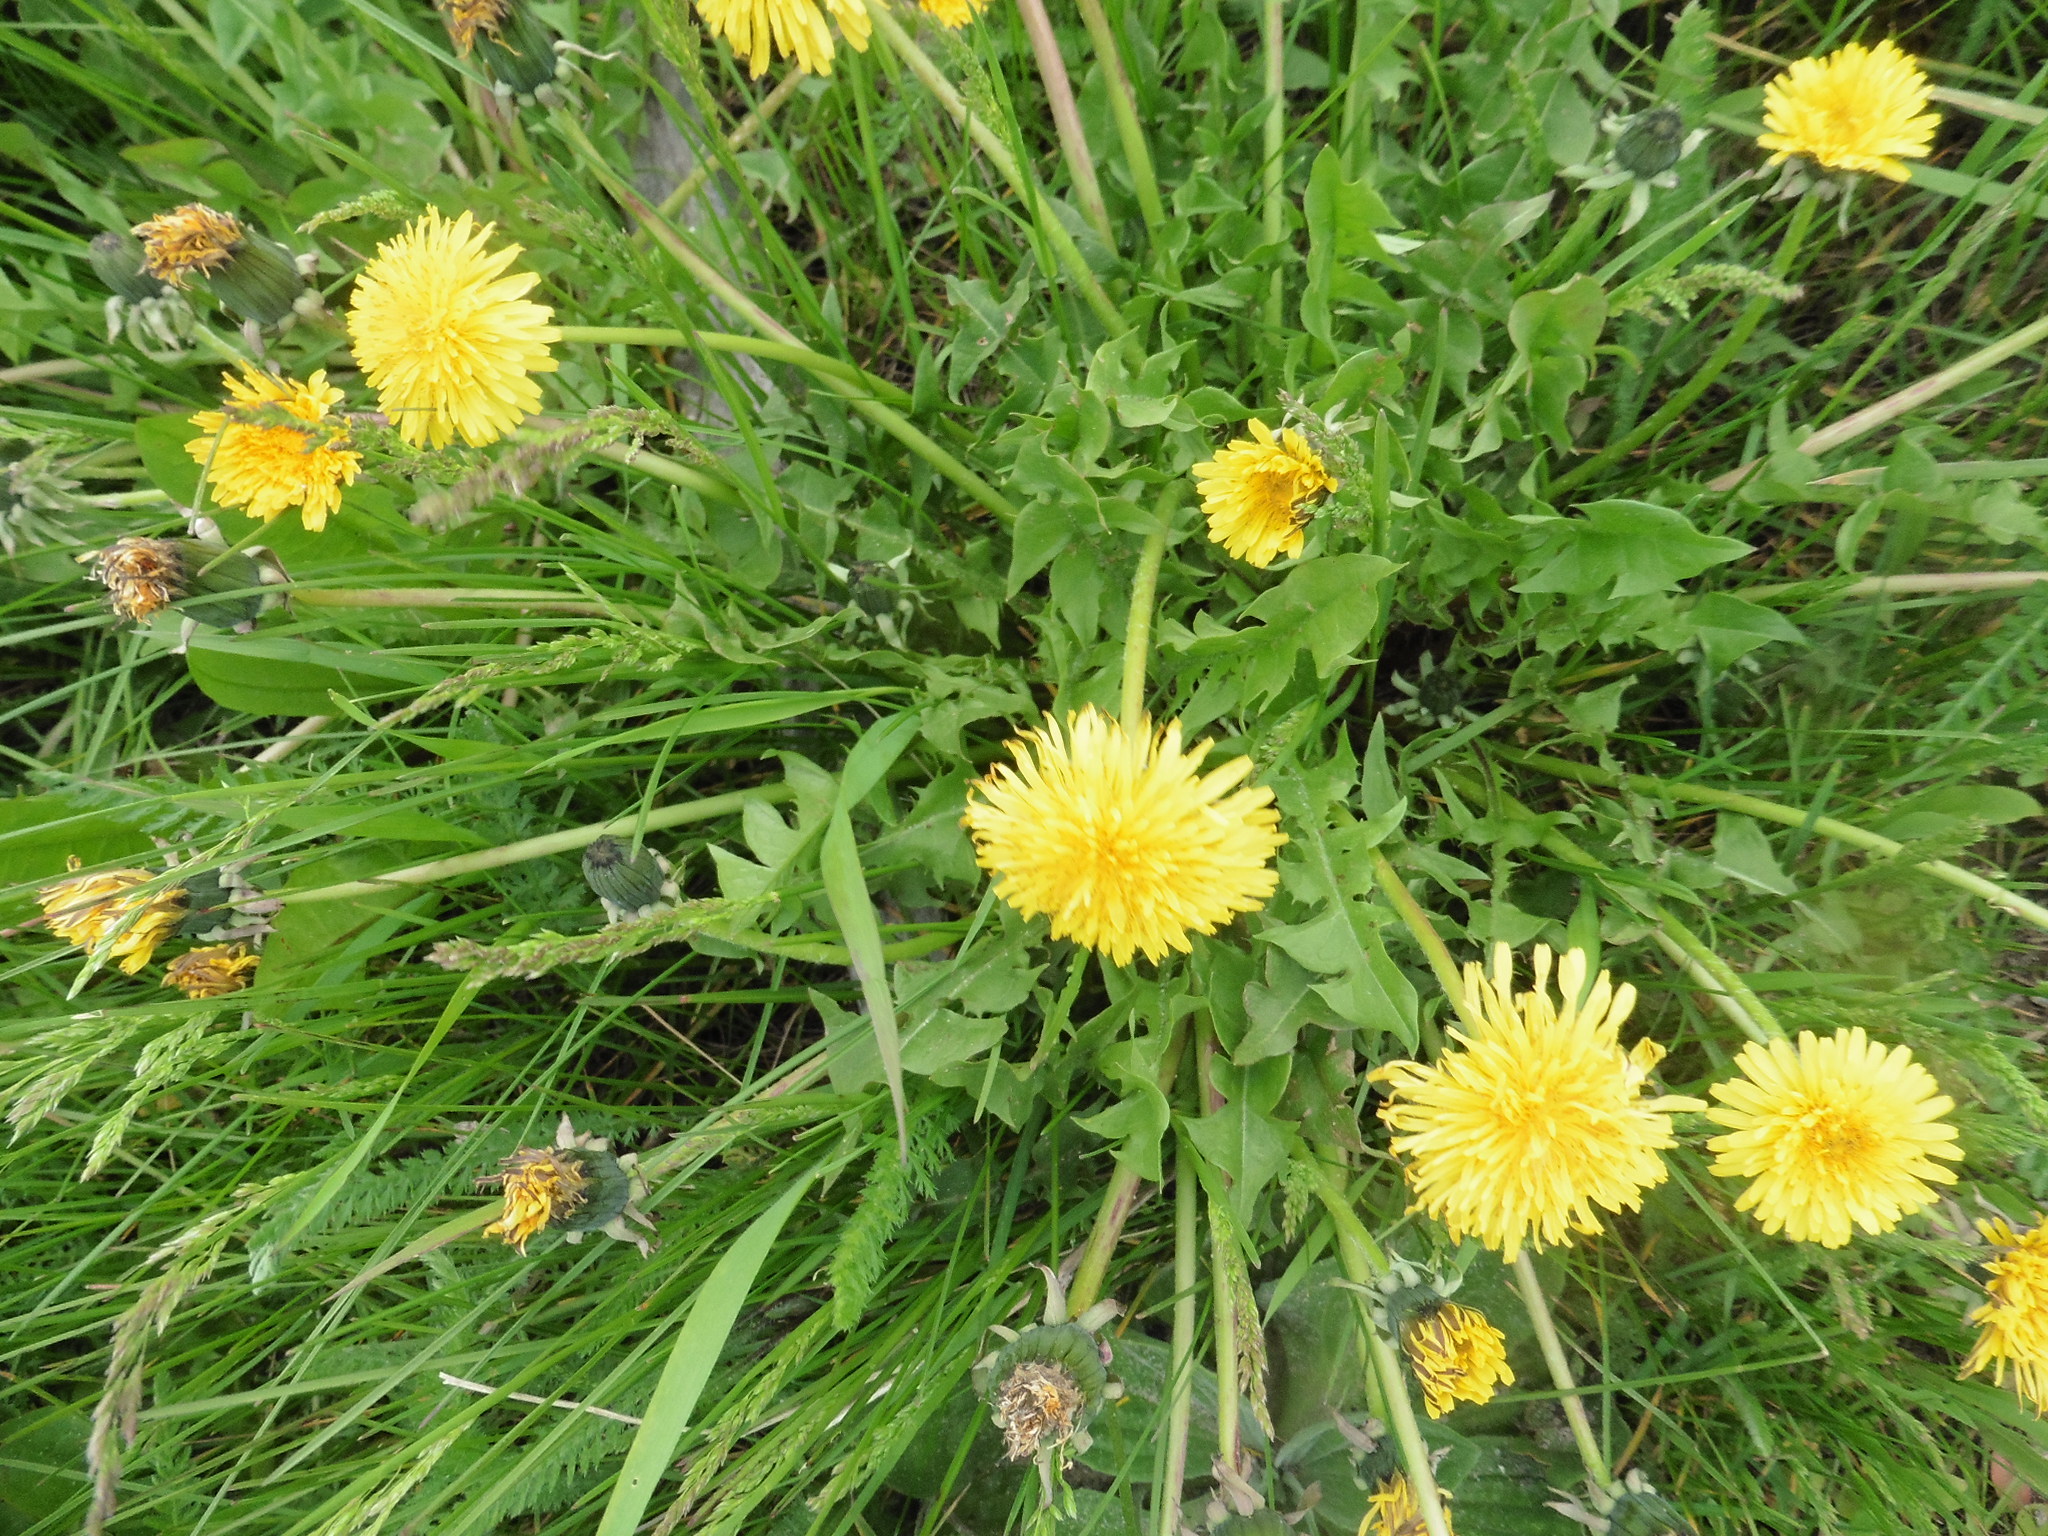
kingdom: Plantae
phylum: Tracheophyta
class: Magnoliopsida
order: Asterales
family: Asteraceae
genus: Taraxacum
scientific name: Taraxacum officinale
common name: Common dandelion
